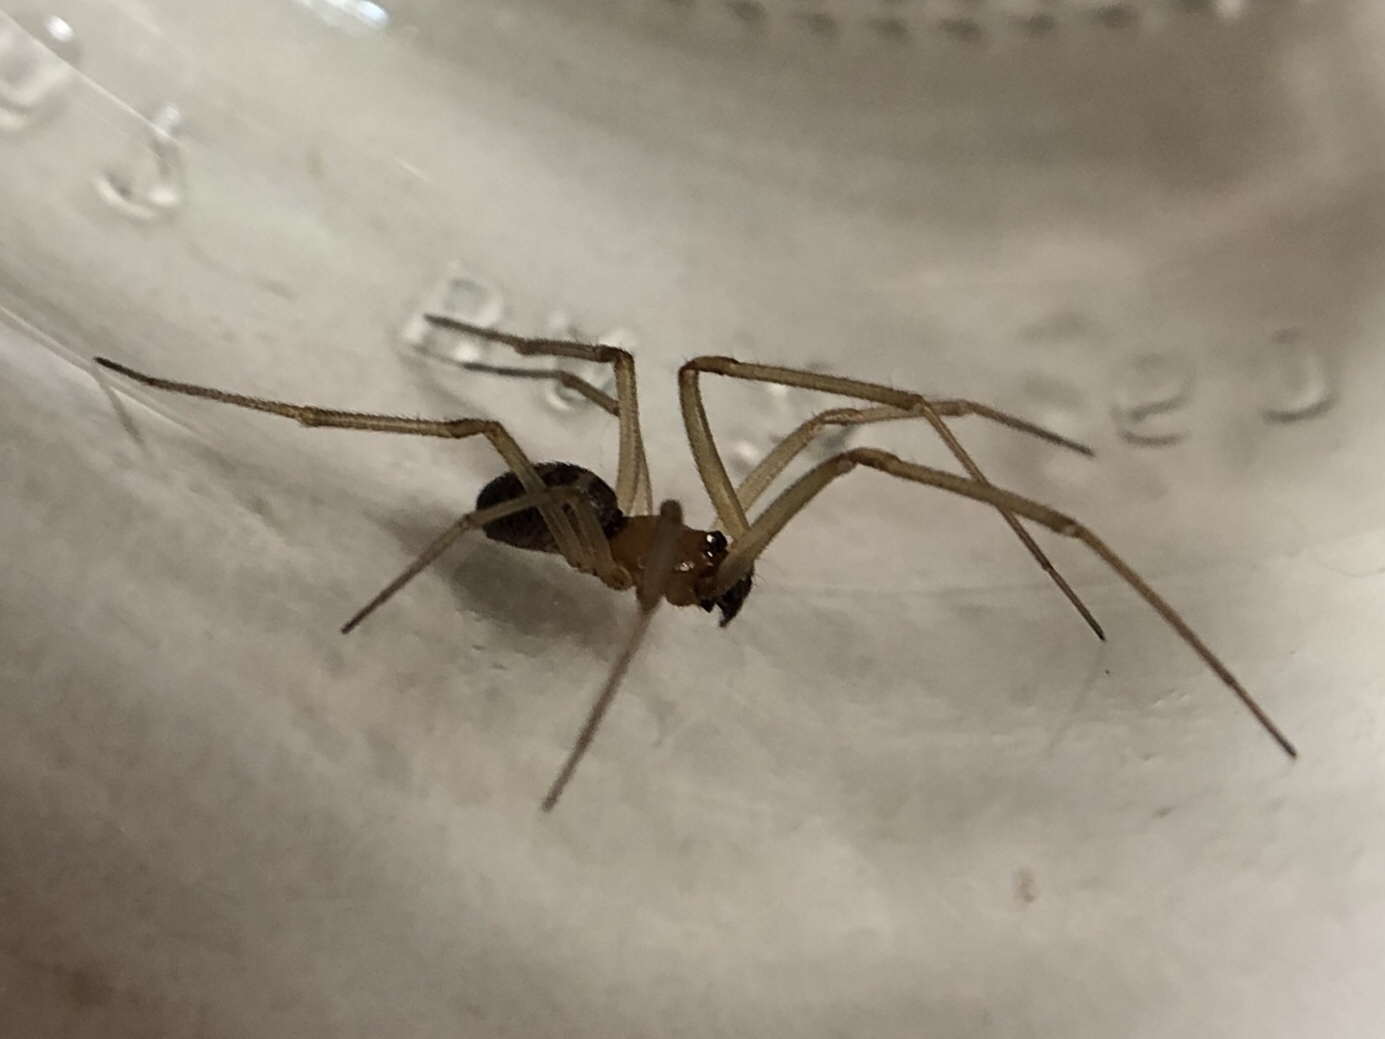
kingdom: Animalia
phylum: Arthropoda
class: Arachnida
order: Araneae
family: Theridiidae
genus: Steatoda
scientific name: Steatoda grossa
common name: False black widow
